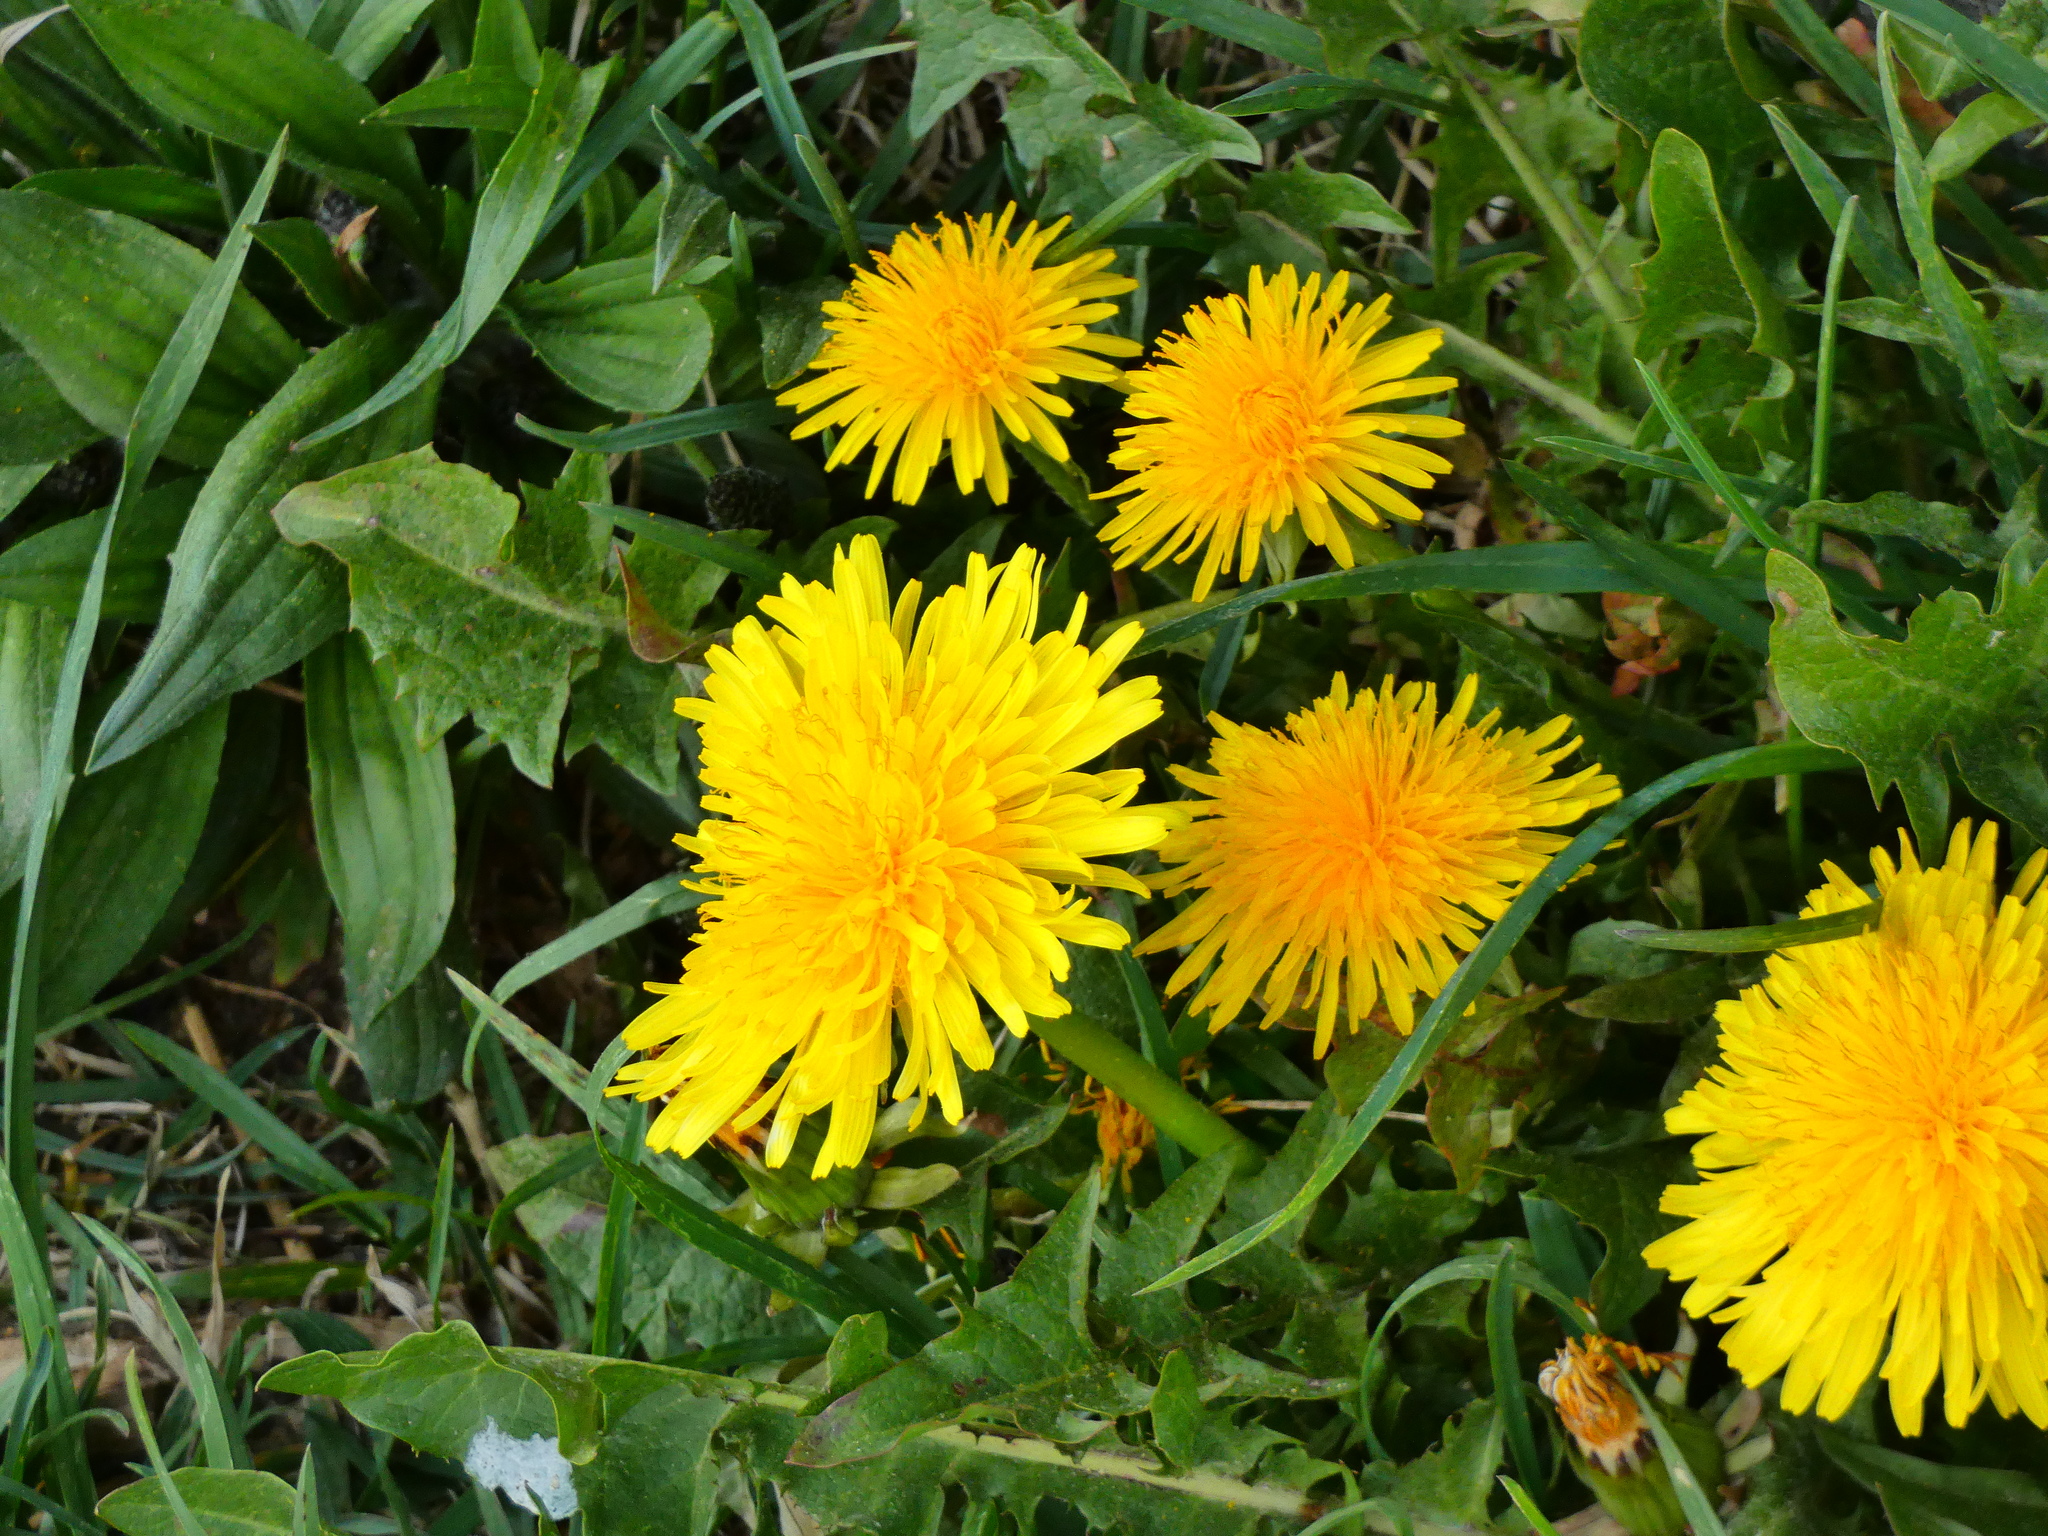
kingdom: Plantae
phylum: Tracheophyta
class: Magnoliopsida
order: Asterales
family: Asteraceae
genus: Taraxacum
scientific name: Taraxacum
